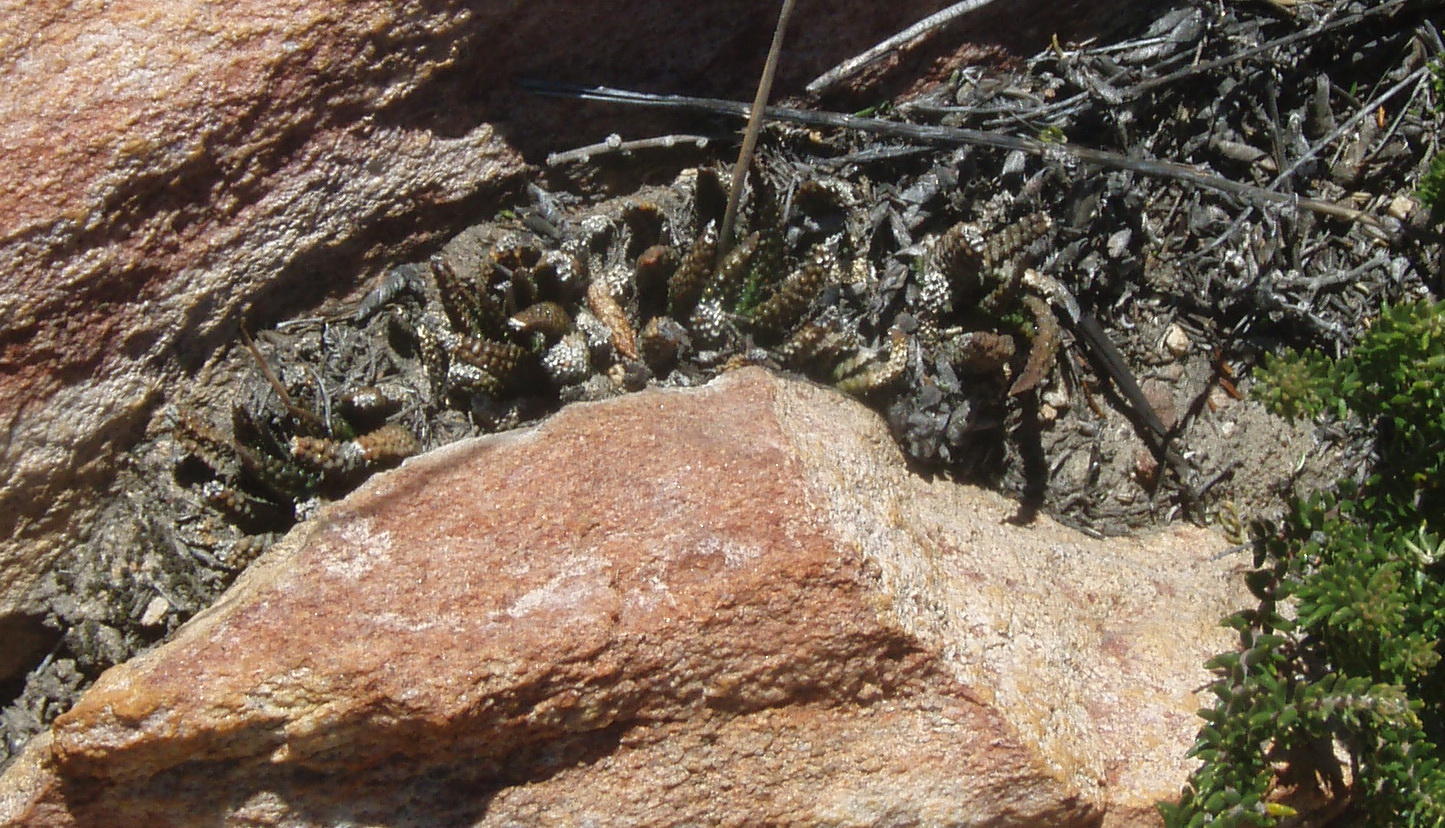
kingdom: Plantae
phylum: Tracheophyta
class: Liliopsida
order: Asparagales
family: Asphodelaceae
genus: Haworthiopsis
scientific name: Haworthiopsis scabra
